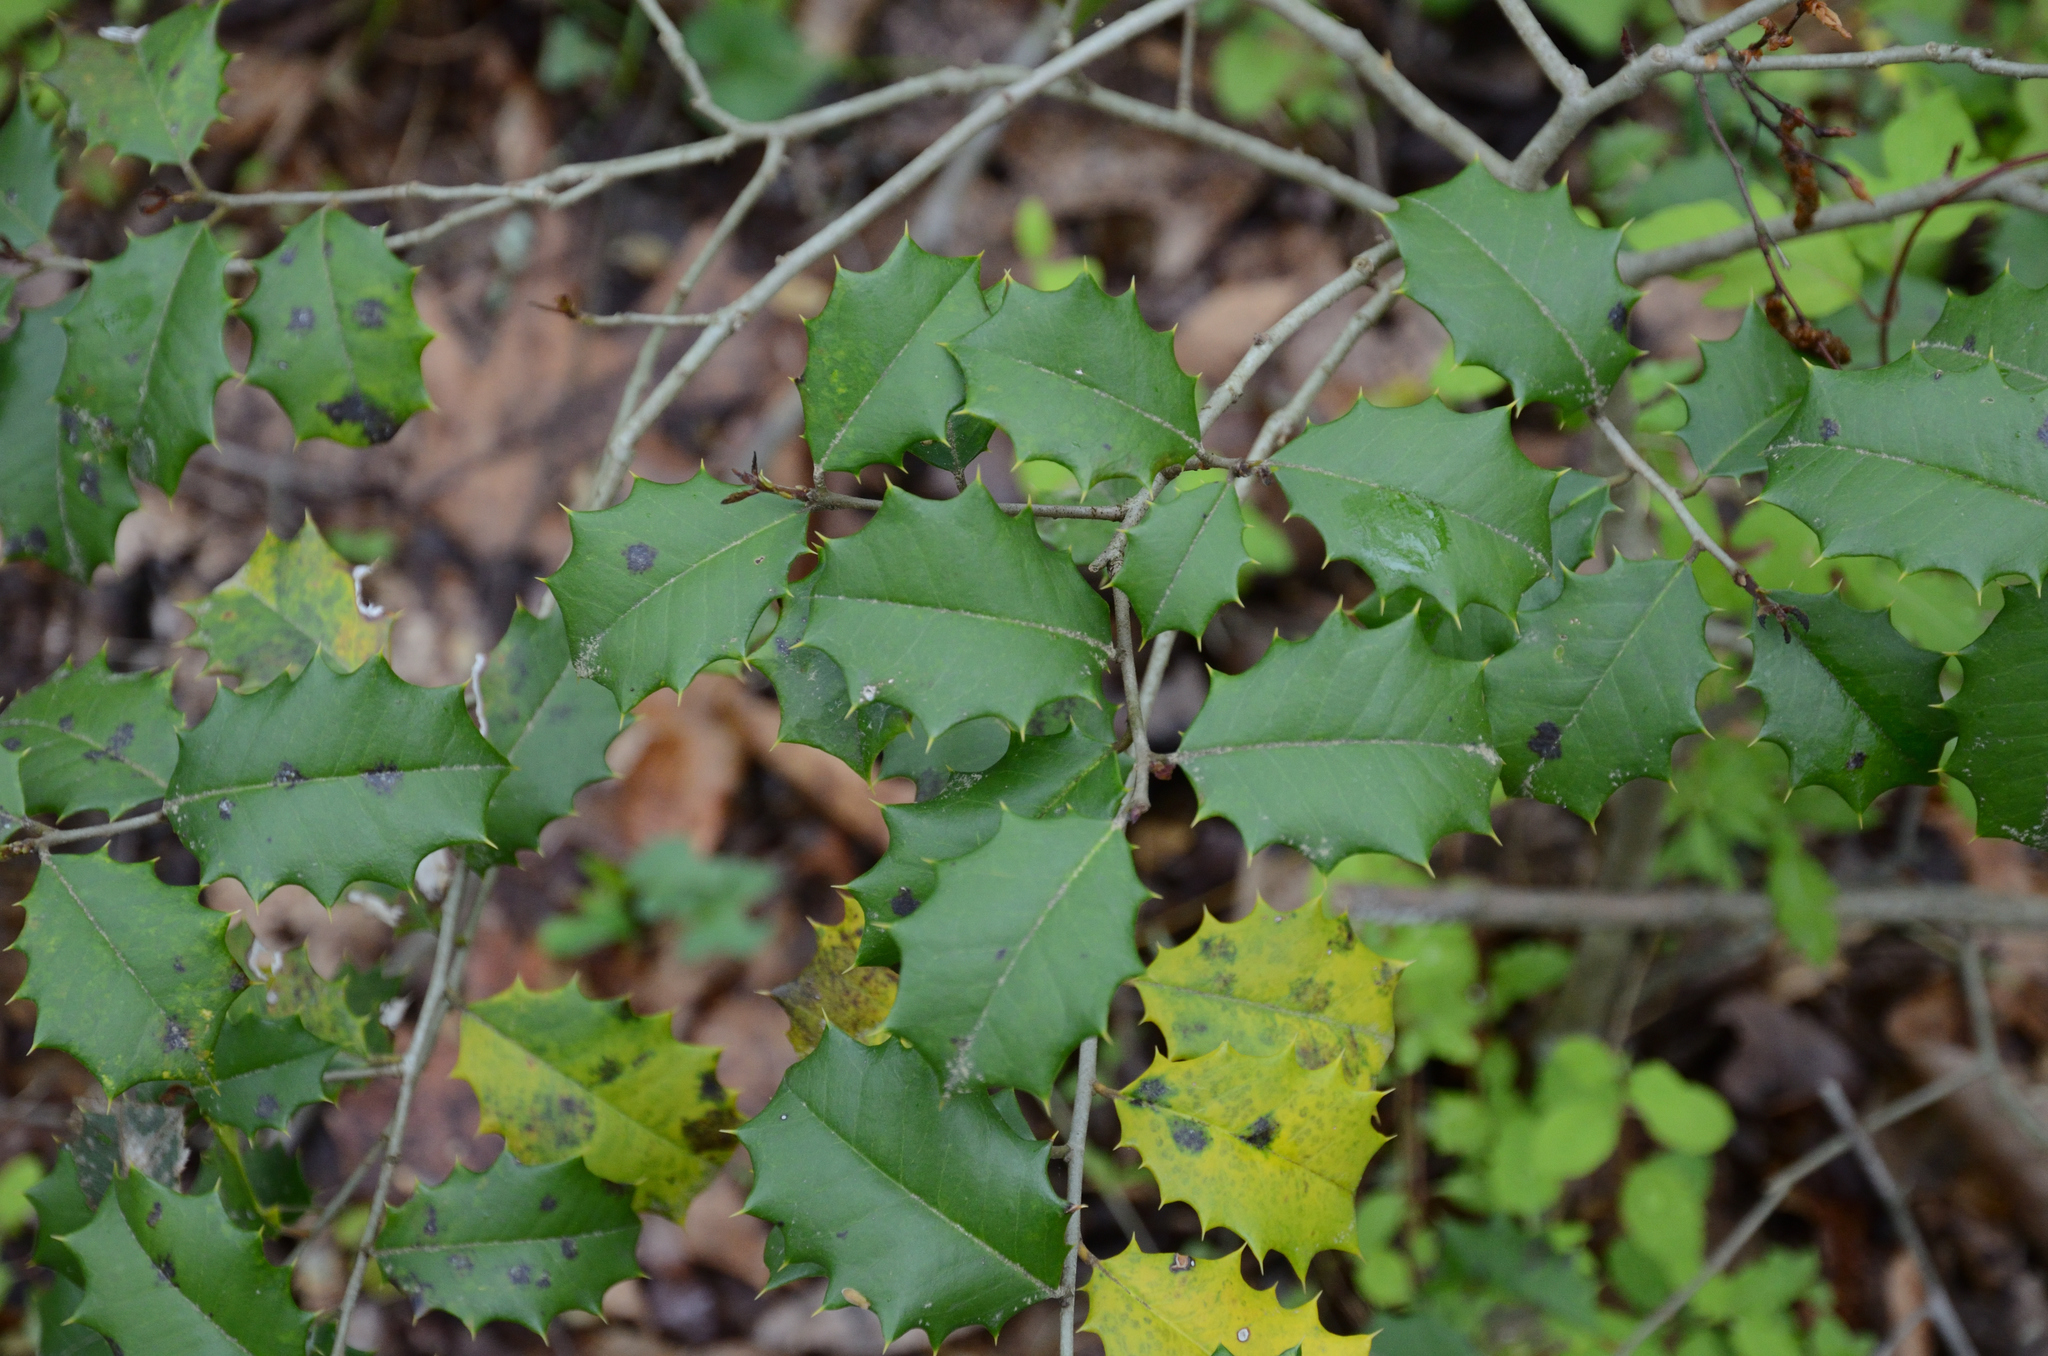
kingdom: Plantae
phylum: Tracheophyta
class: Magnoliopsida
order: Aquifoliales
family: Aquifoliaceae
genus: Ilex
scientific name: Ilex opaca
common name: American holly
